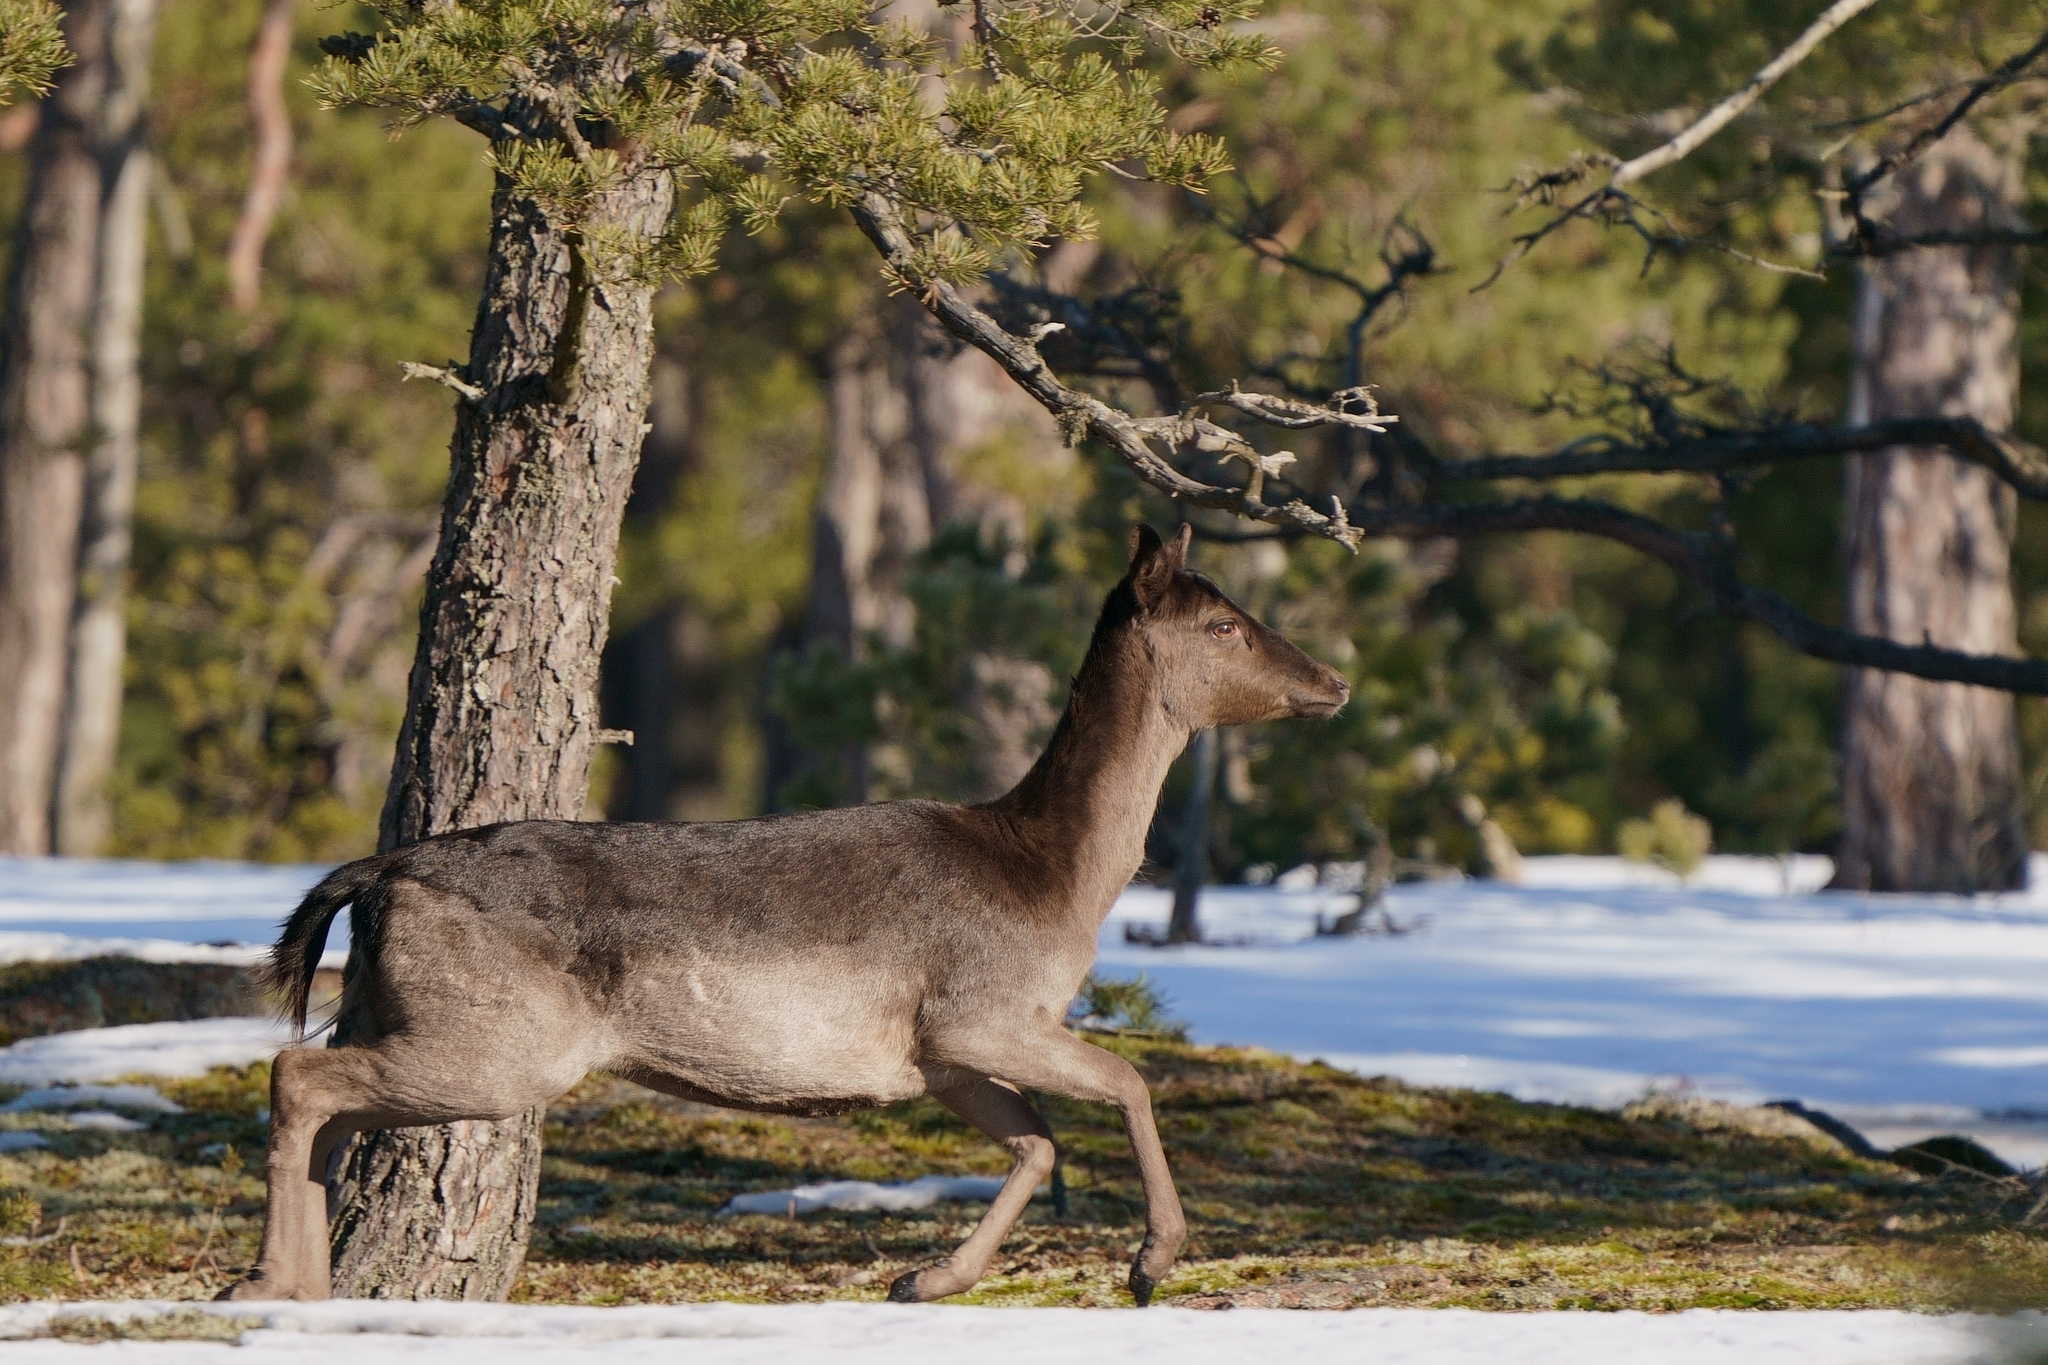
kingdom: Animalia
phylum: Chordata
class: Mammalia
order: Artiodactyla
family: Cervidae
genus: Dama
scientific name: Dama dama
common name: Fallow deer
